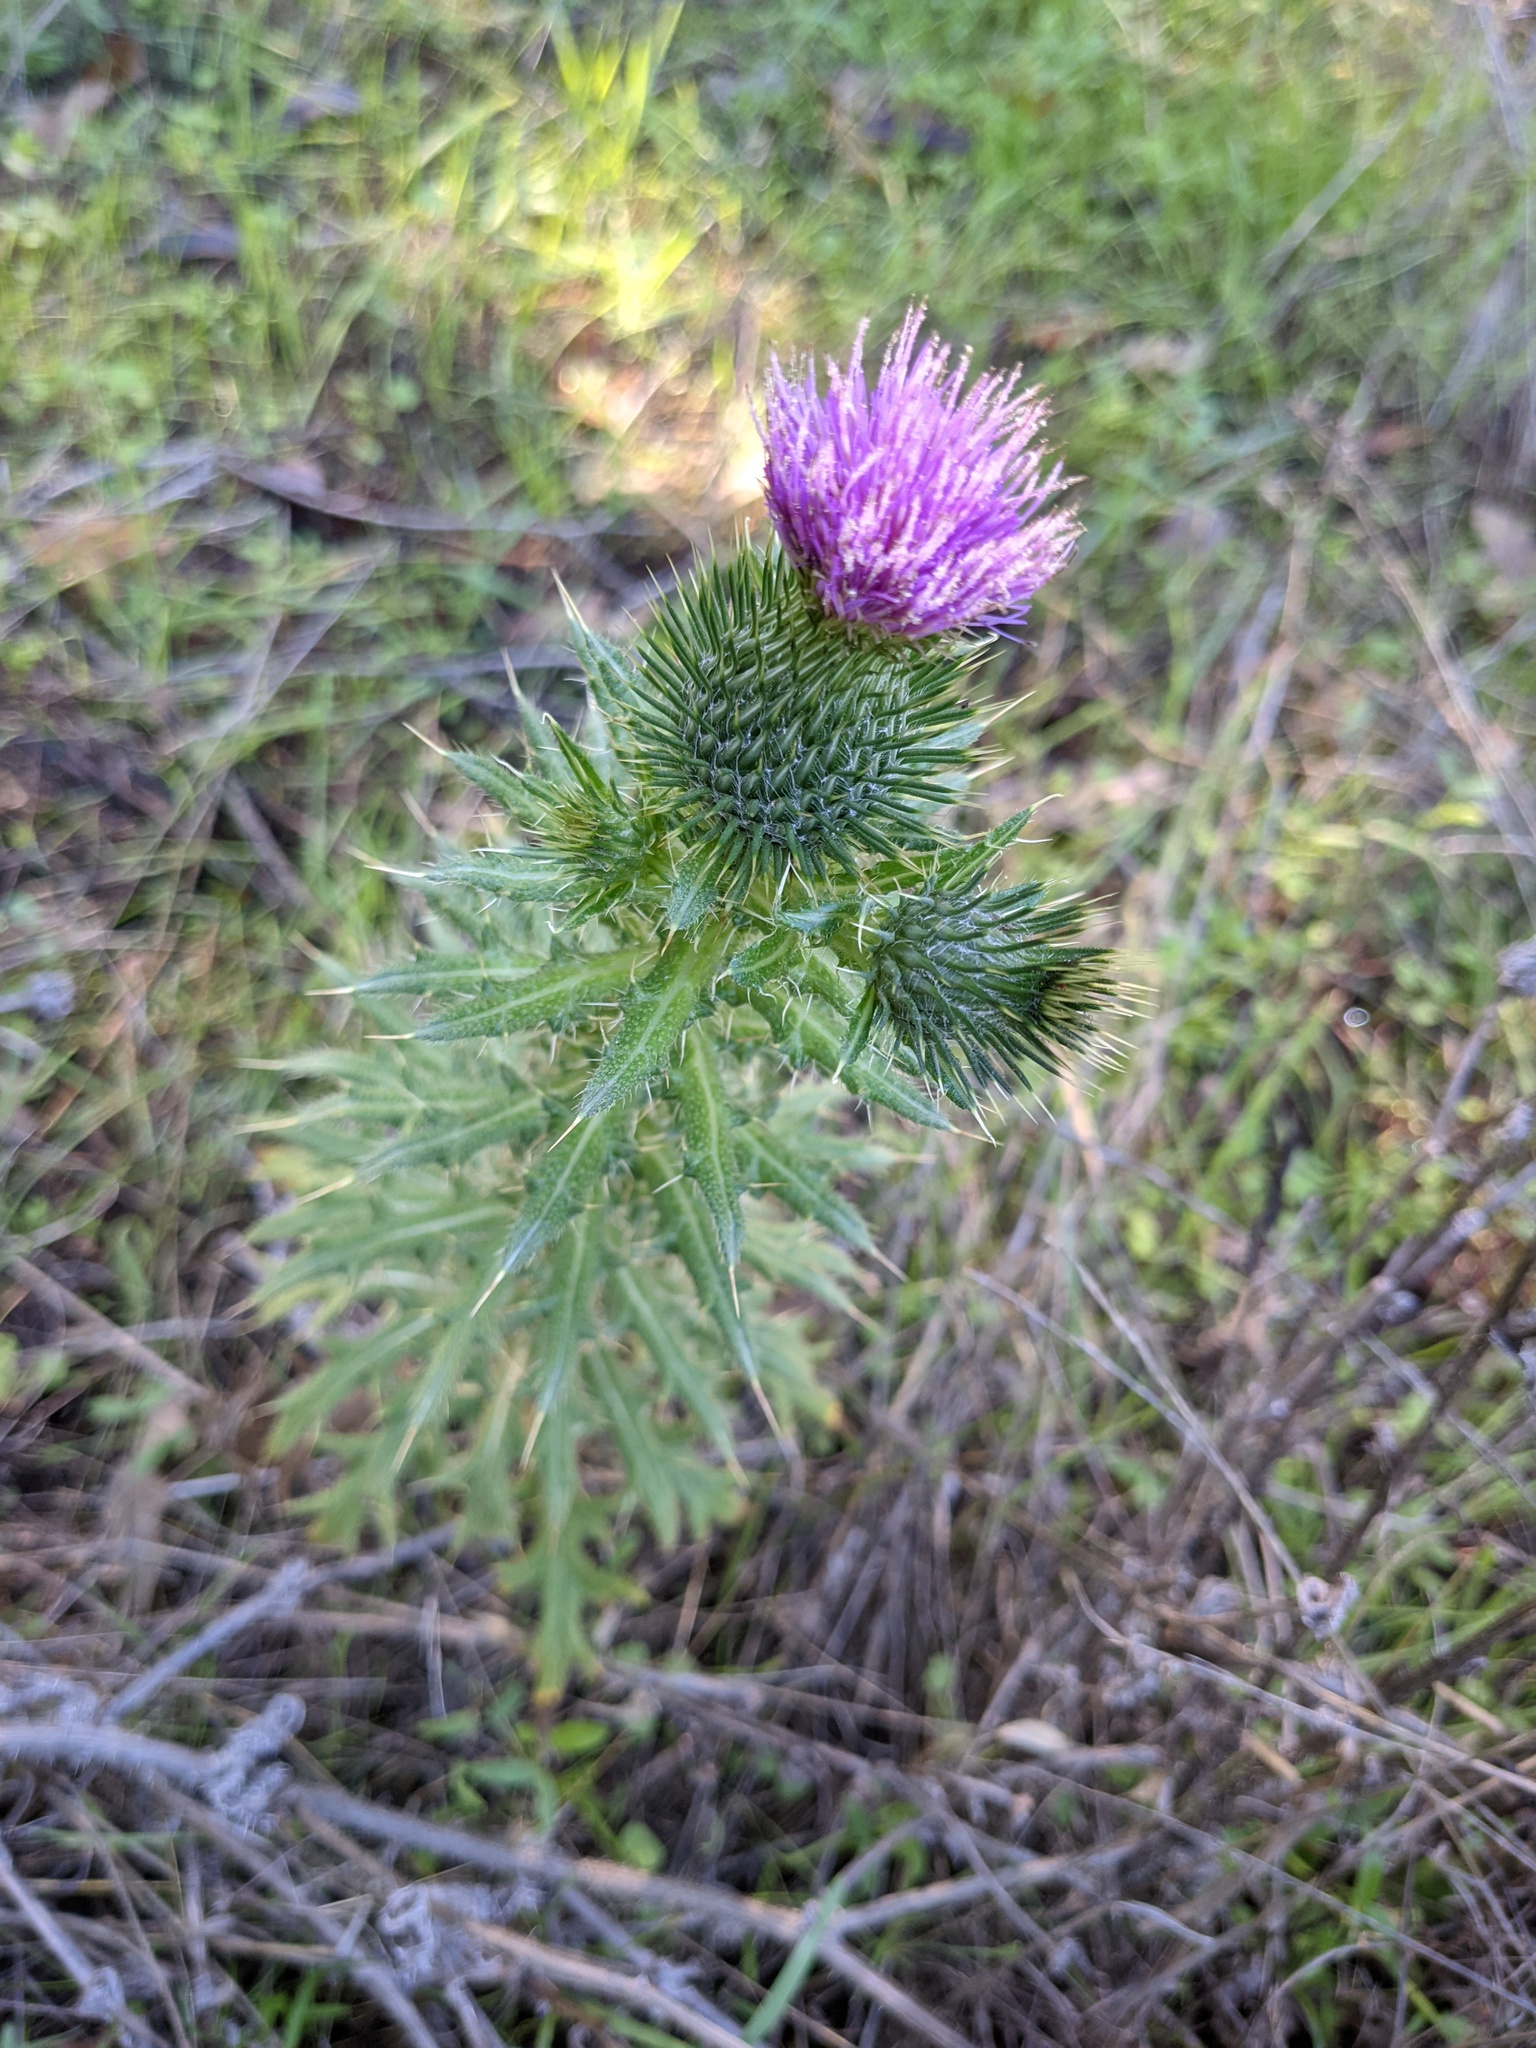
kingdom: Plantae
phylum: Tracheophyta
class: Magnoliopsida
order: Asterales
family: Asteraceae
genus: Cirsium
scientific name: Cirsium vulgare
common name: Bull thistle
